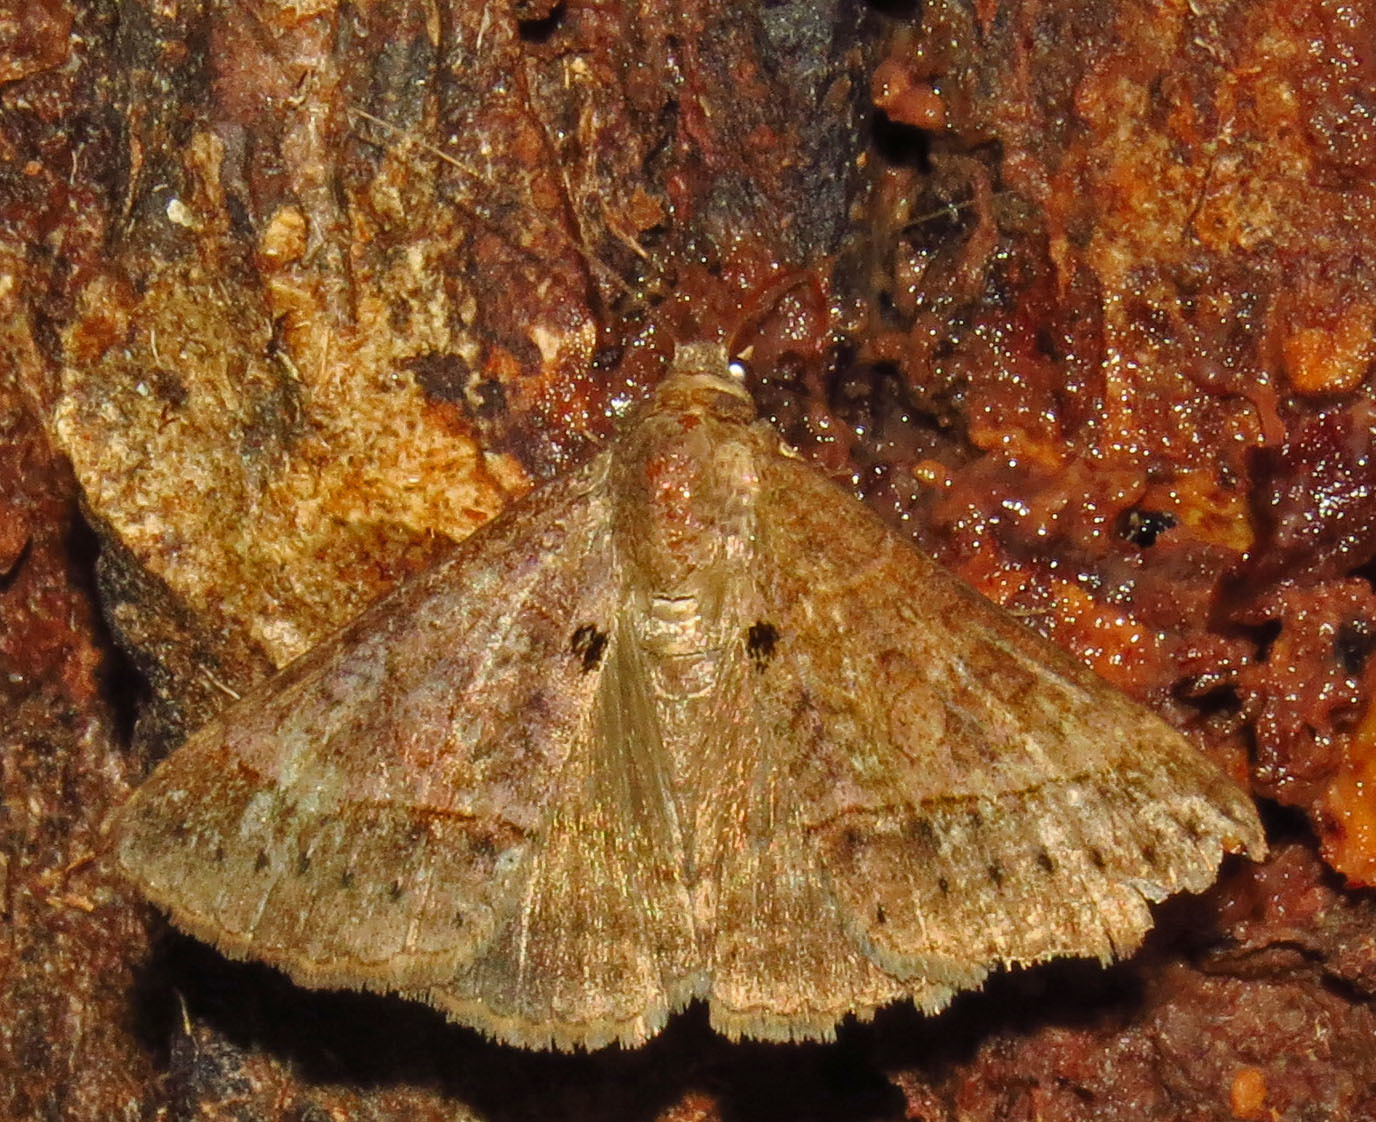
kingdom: Animalia
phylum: Arthropoda
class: Insecta
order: Lepidoptera
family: Erebidae
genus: Mocis
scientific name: Mocis latipes
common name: Striped grass looper
